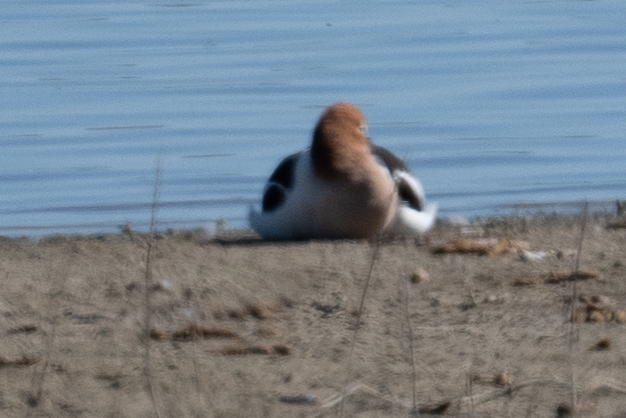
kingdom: Animalia
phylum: Chordata
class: Aves
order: Charadriiformes
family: Recurvirostridae
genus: Recurvirostra
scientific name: Recurvirostra americana
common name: American avocet
